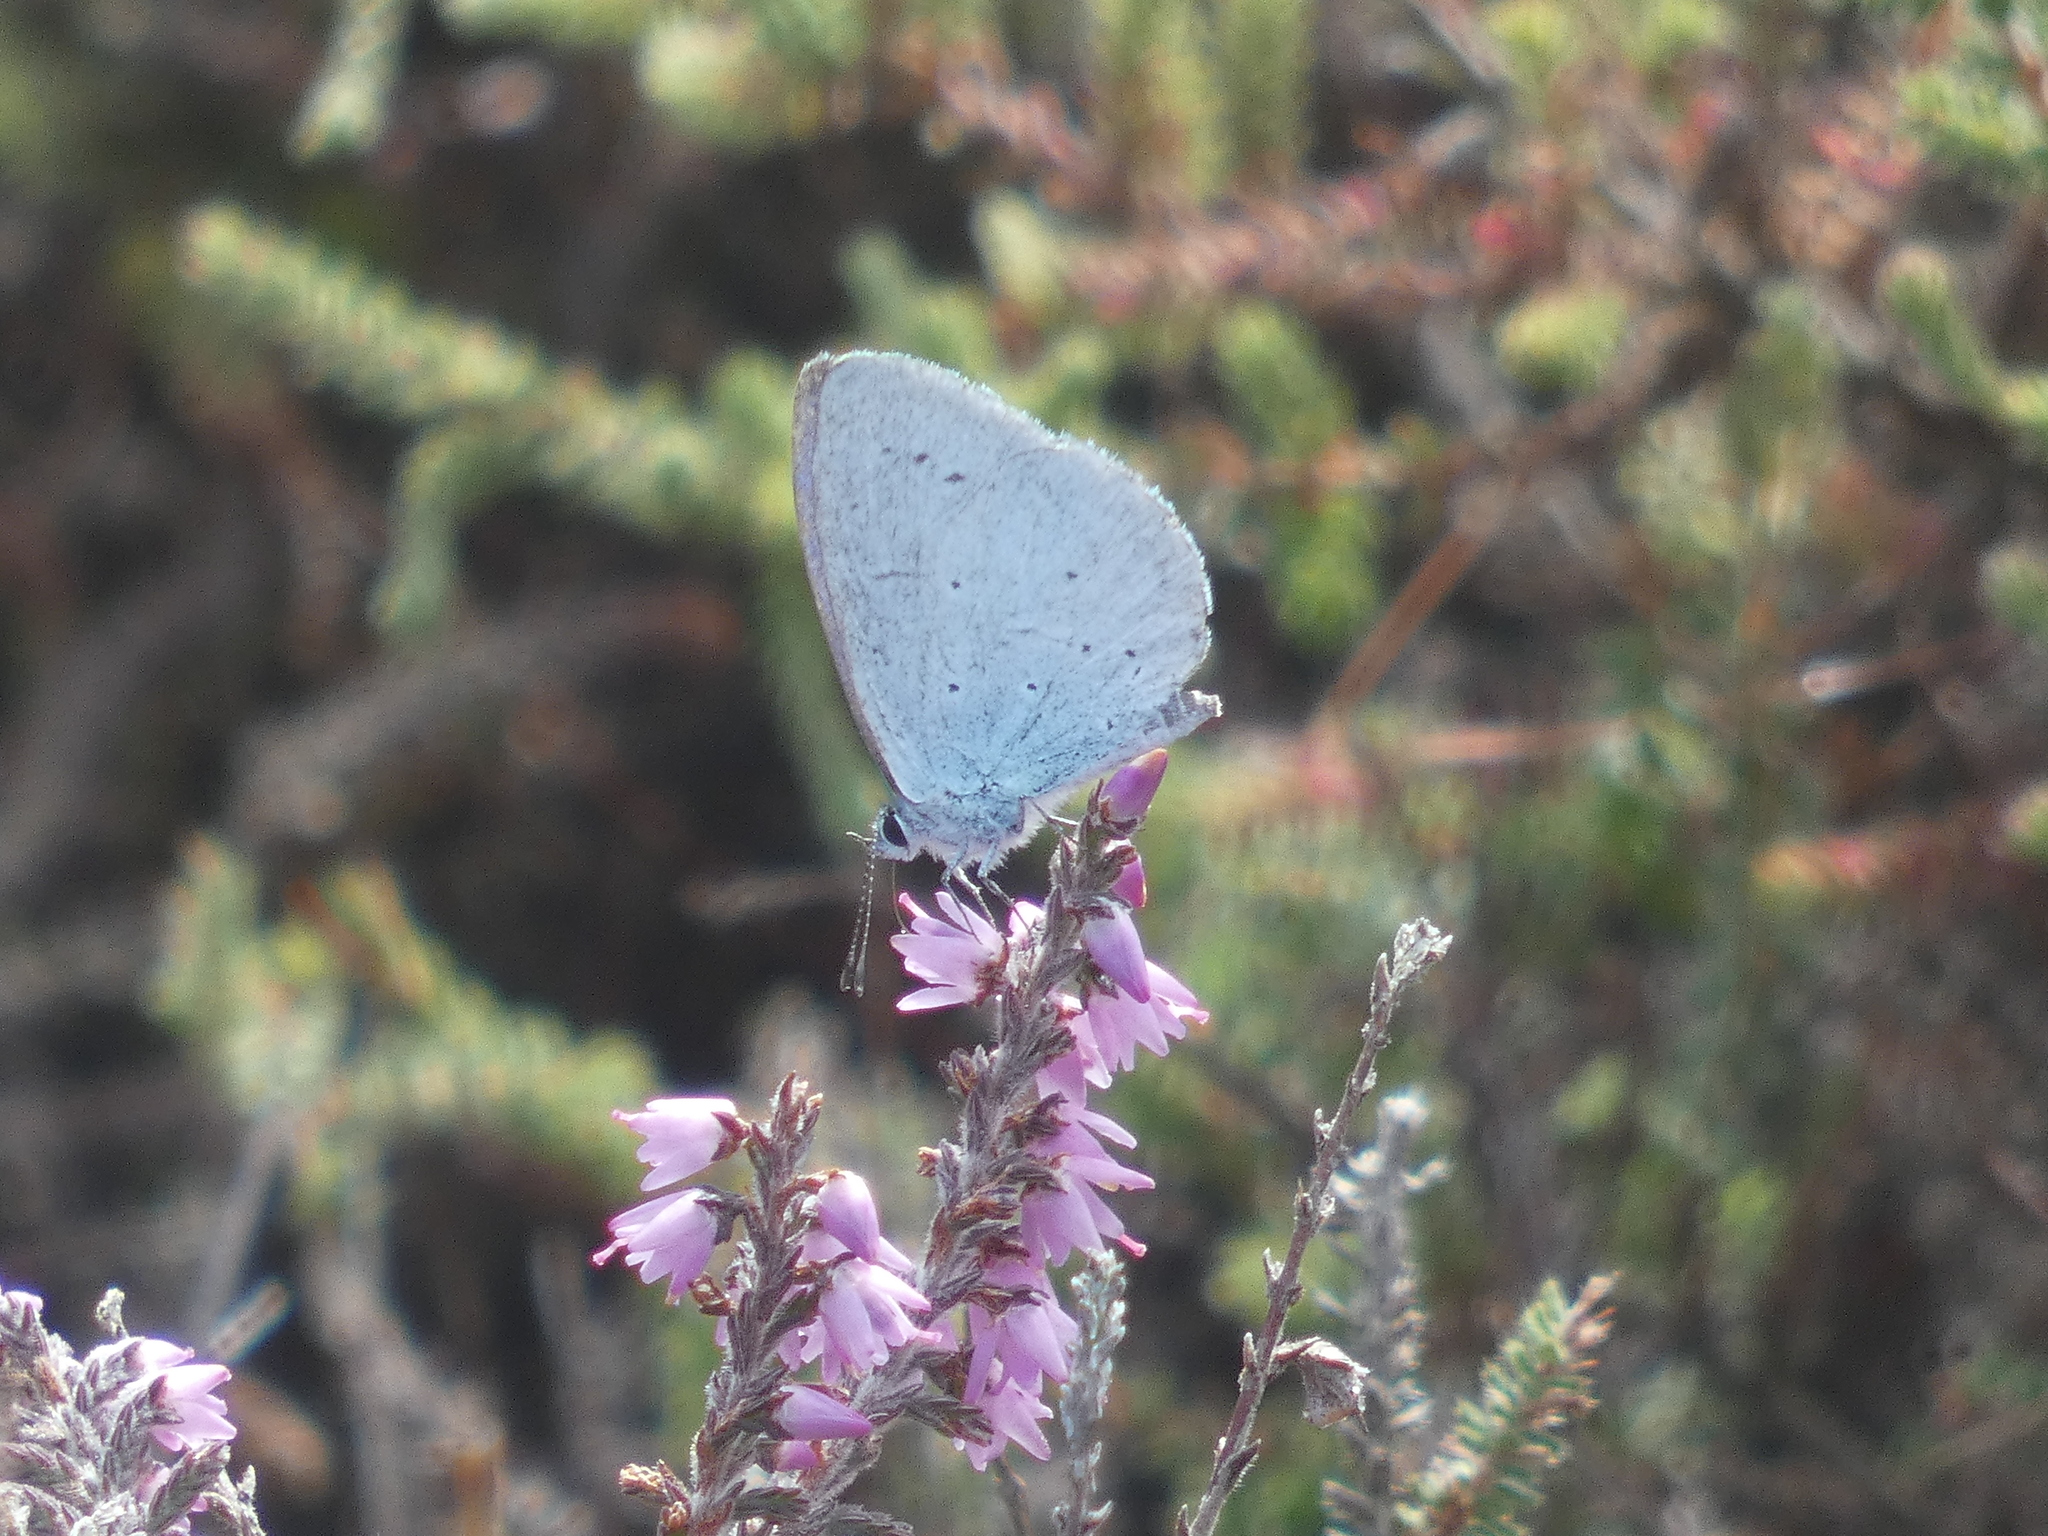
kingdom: Animalia
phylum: Arthropoda
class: Insecta
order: Lepidoptera
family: Lycaenidae
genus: Celastrina
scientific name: Celastrina argiolus
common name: Holly blue
